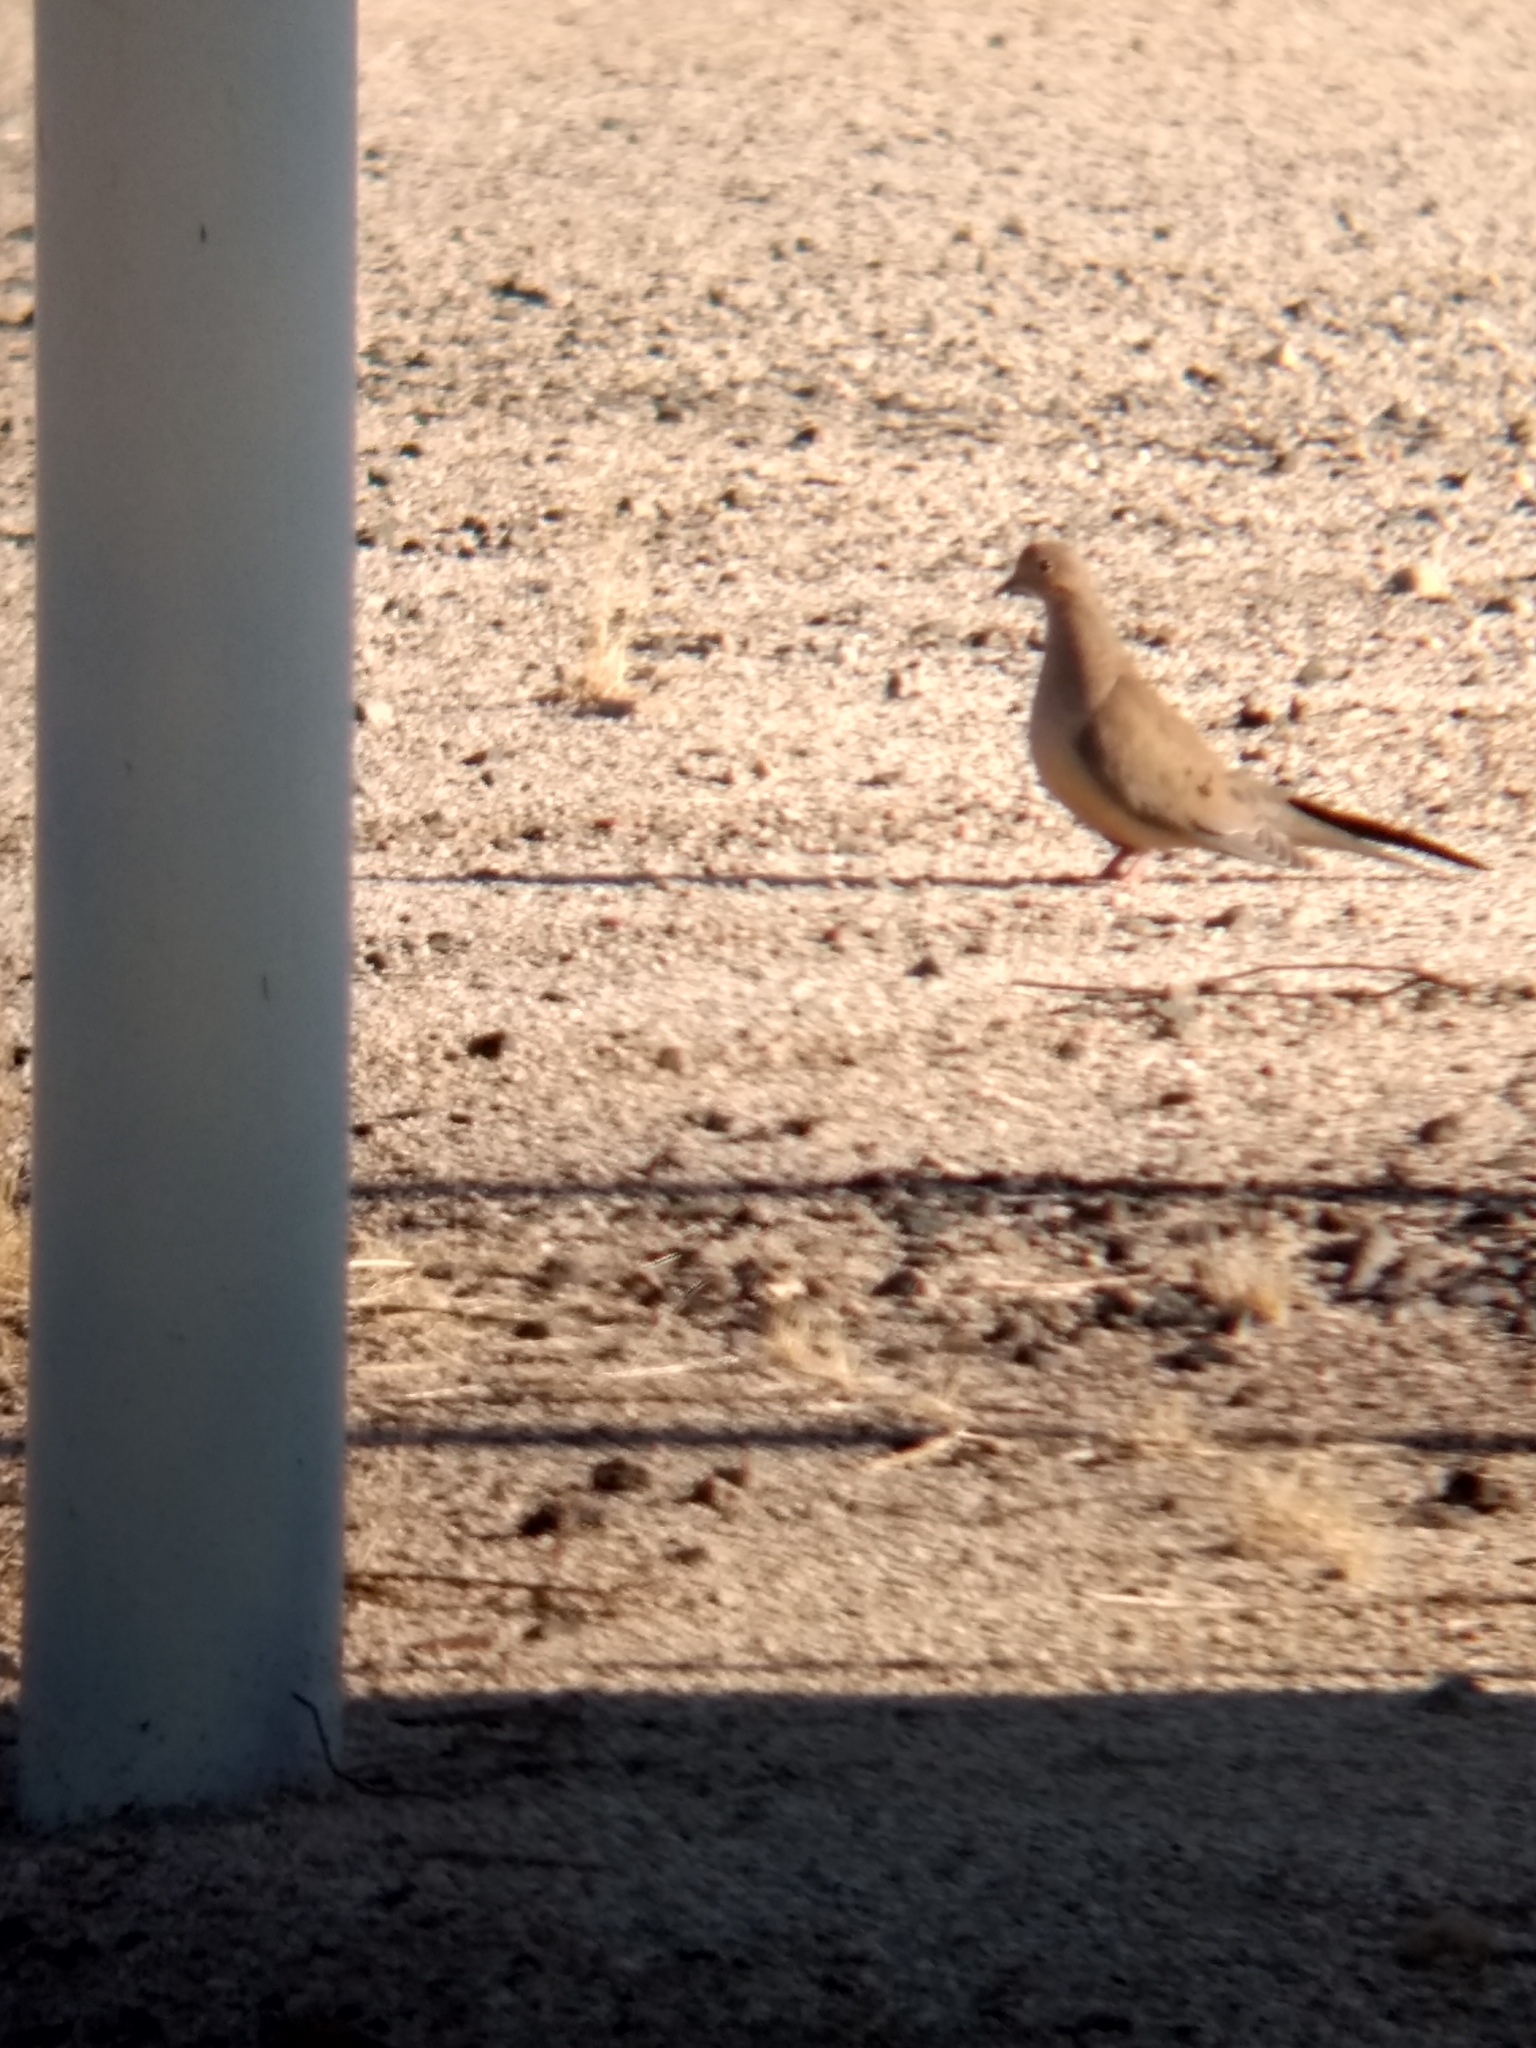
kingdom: Animalia
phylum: Chordata
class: Aves
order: Columbiformes
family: Columbidae
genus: Zenaida
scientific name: Zenaida macroura
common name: Mourning dove
